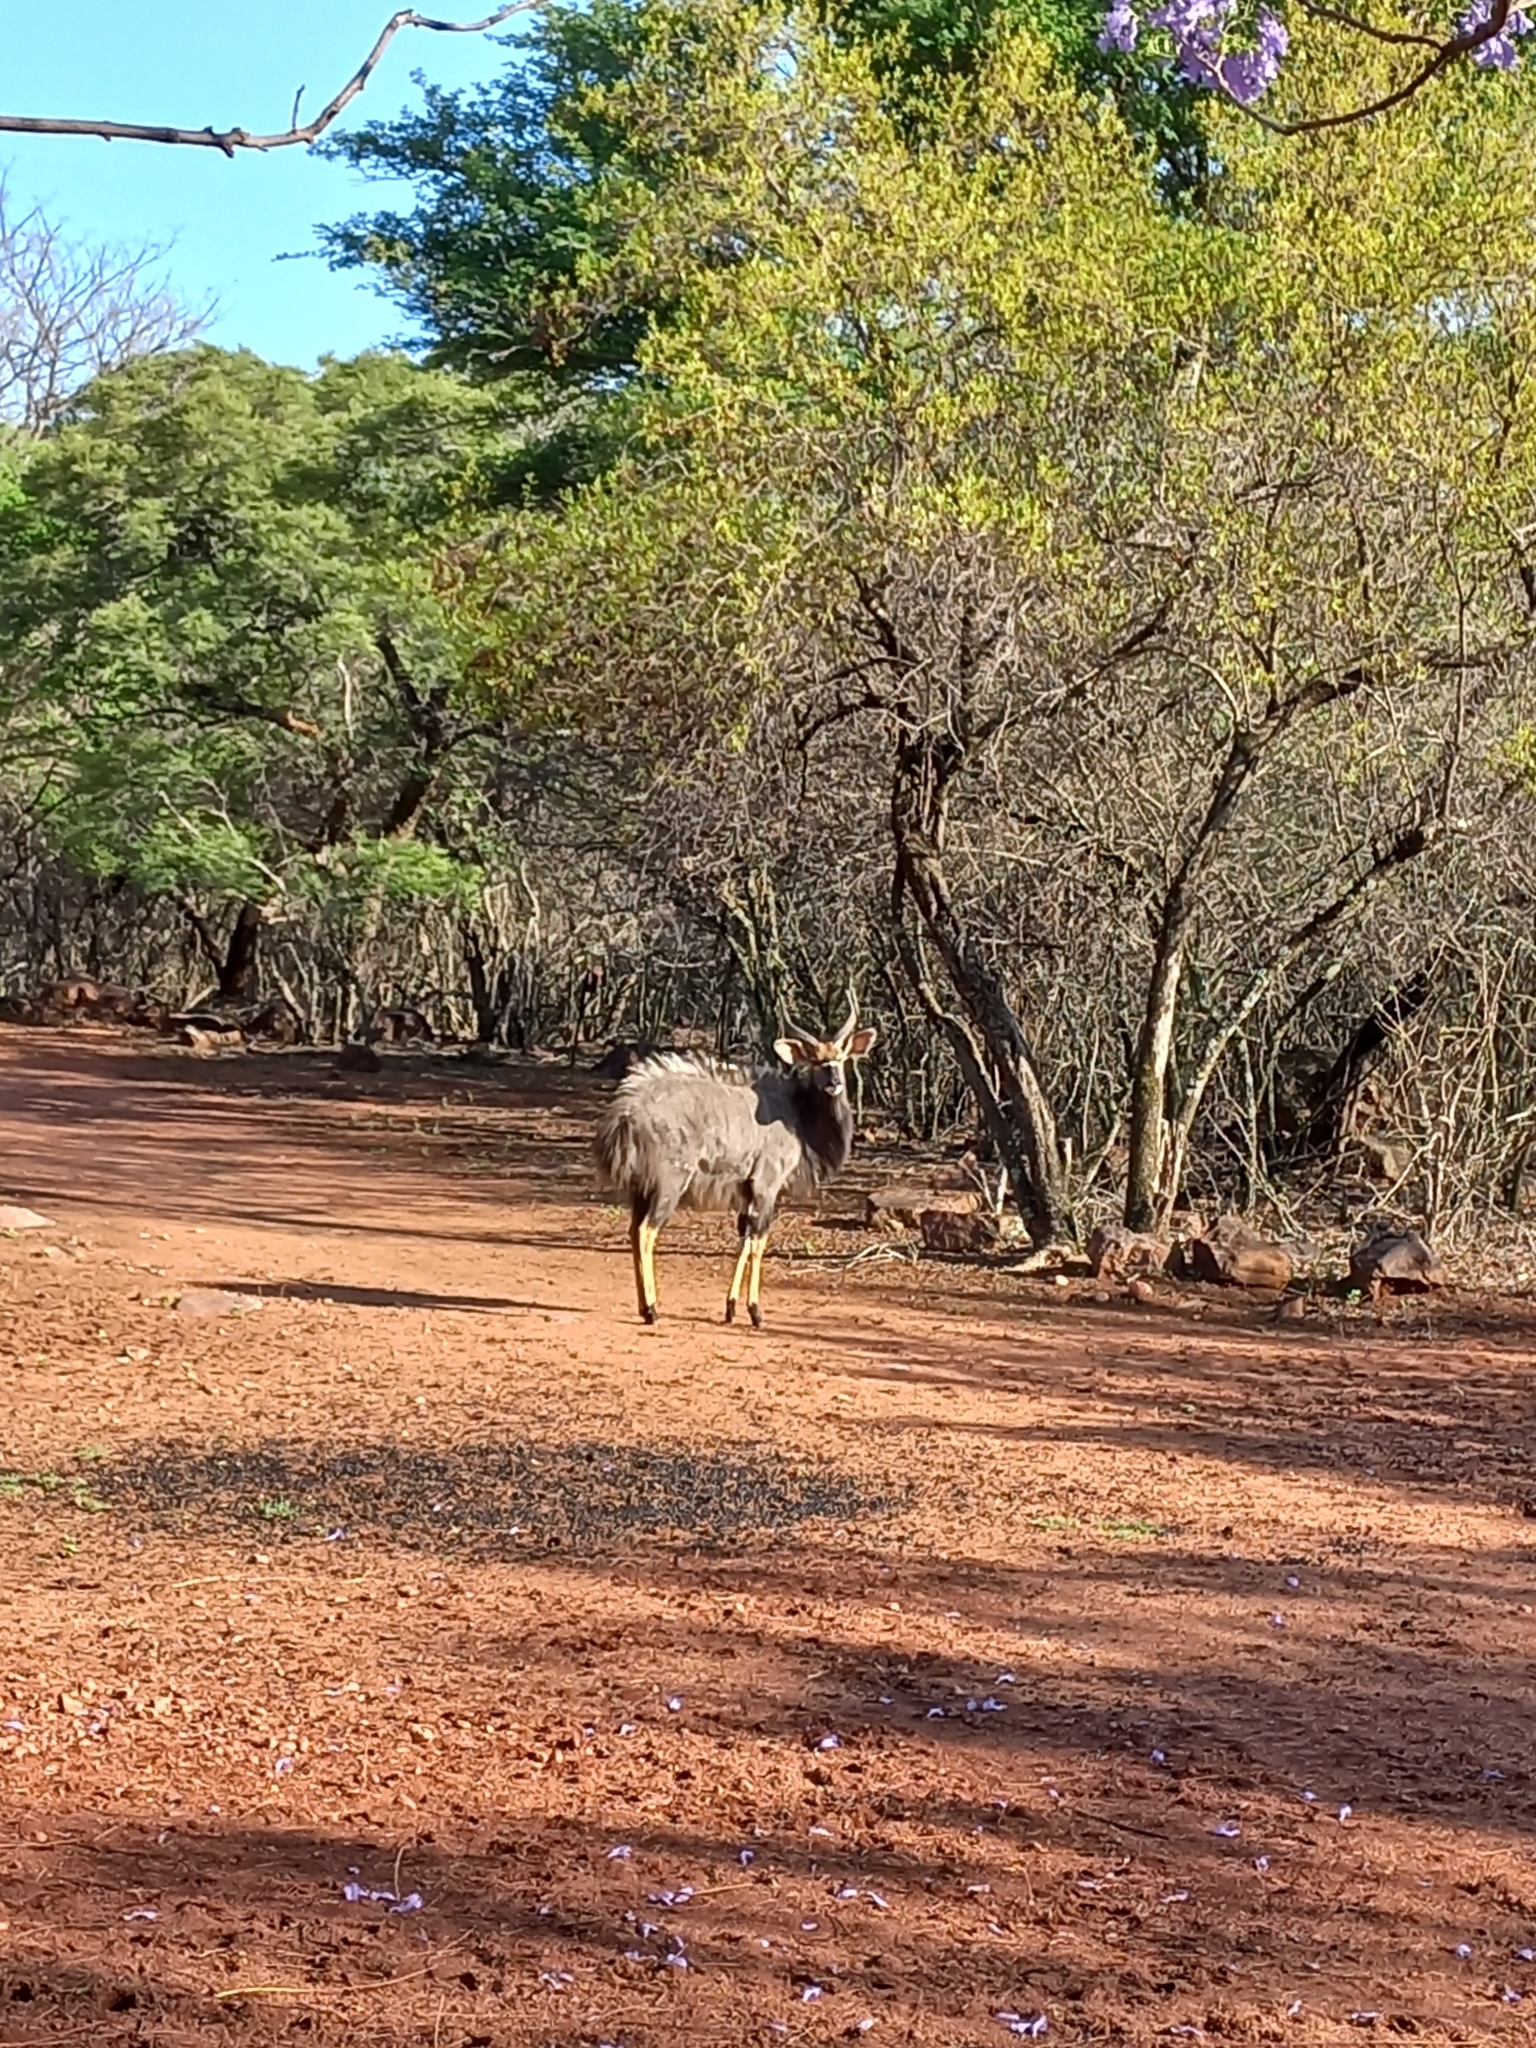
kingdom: Animalia
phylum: Chordata
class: Mammalia
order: Artiodactyla
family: Bovidae
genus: Tragelaphus
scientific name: Tragelaphus angasii
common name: Nyala
